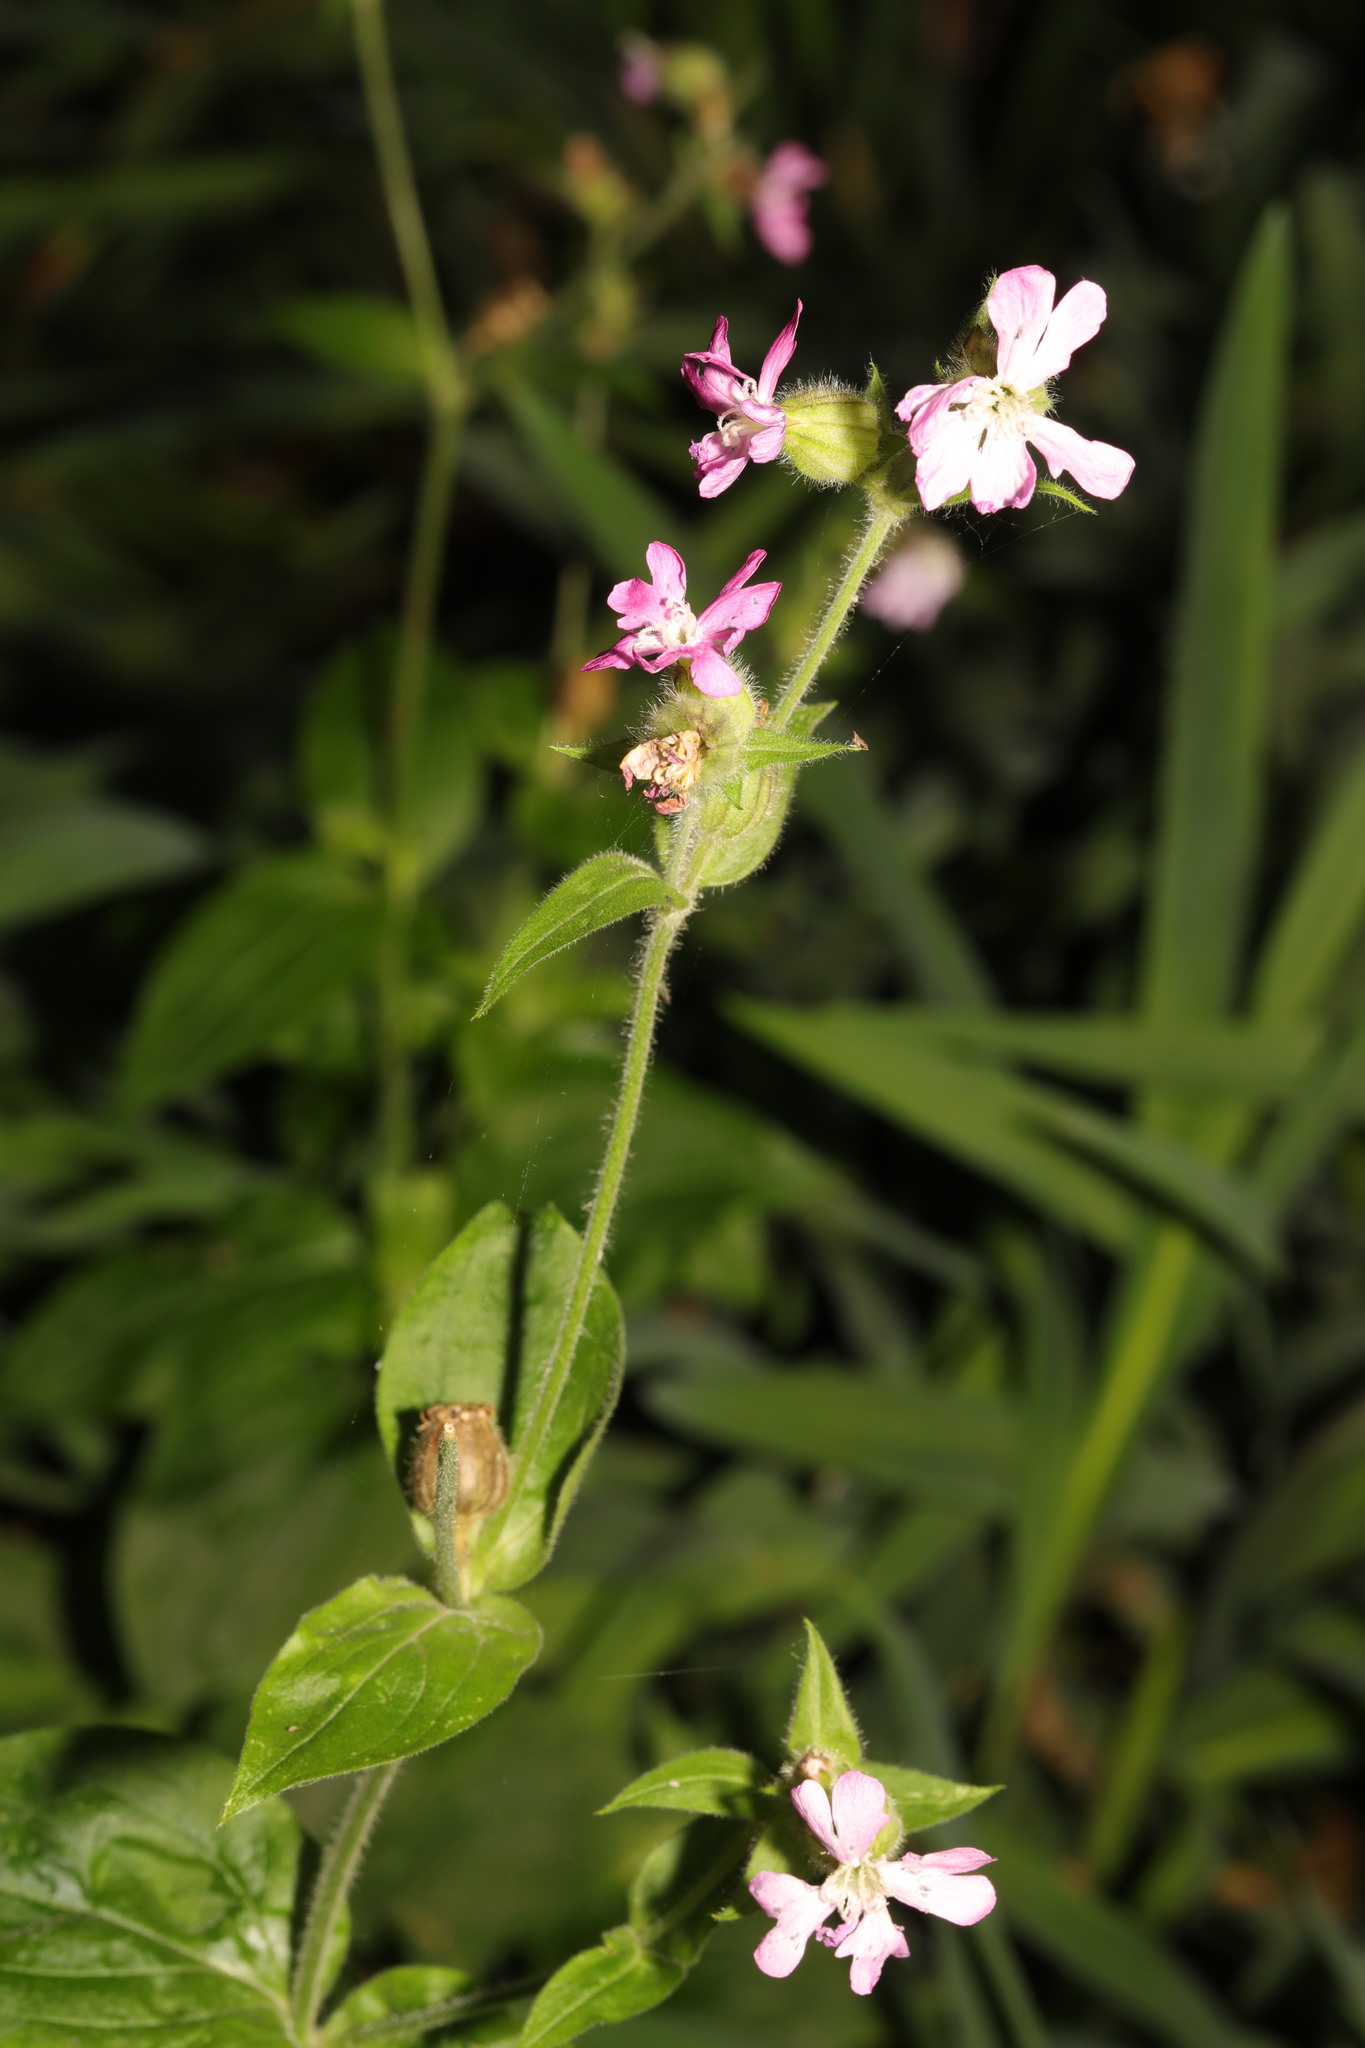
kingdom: Plantae
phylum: Tracheophyta
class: Magnoliopsida
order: Caryophyllales
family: Caryophyllaceae
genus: Silene
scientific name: Silene dioica
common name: Red campion
